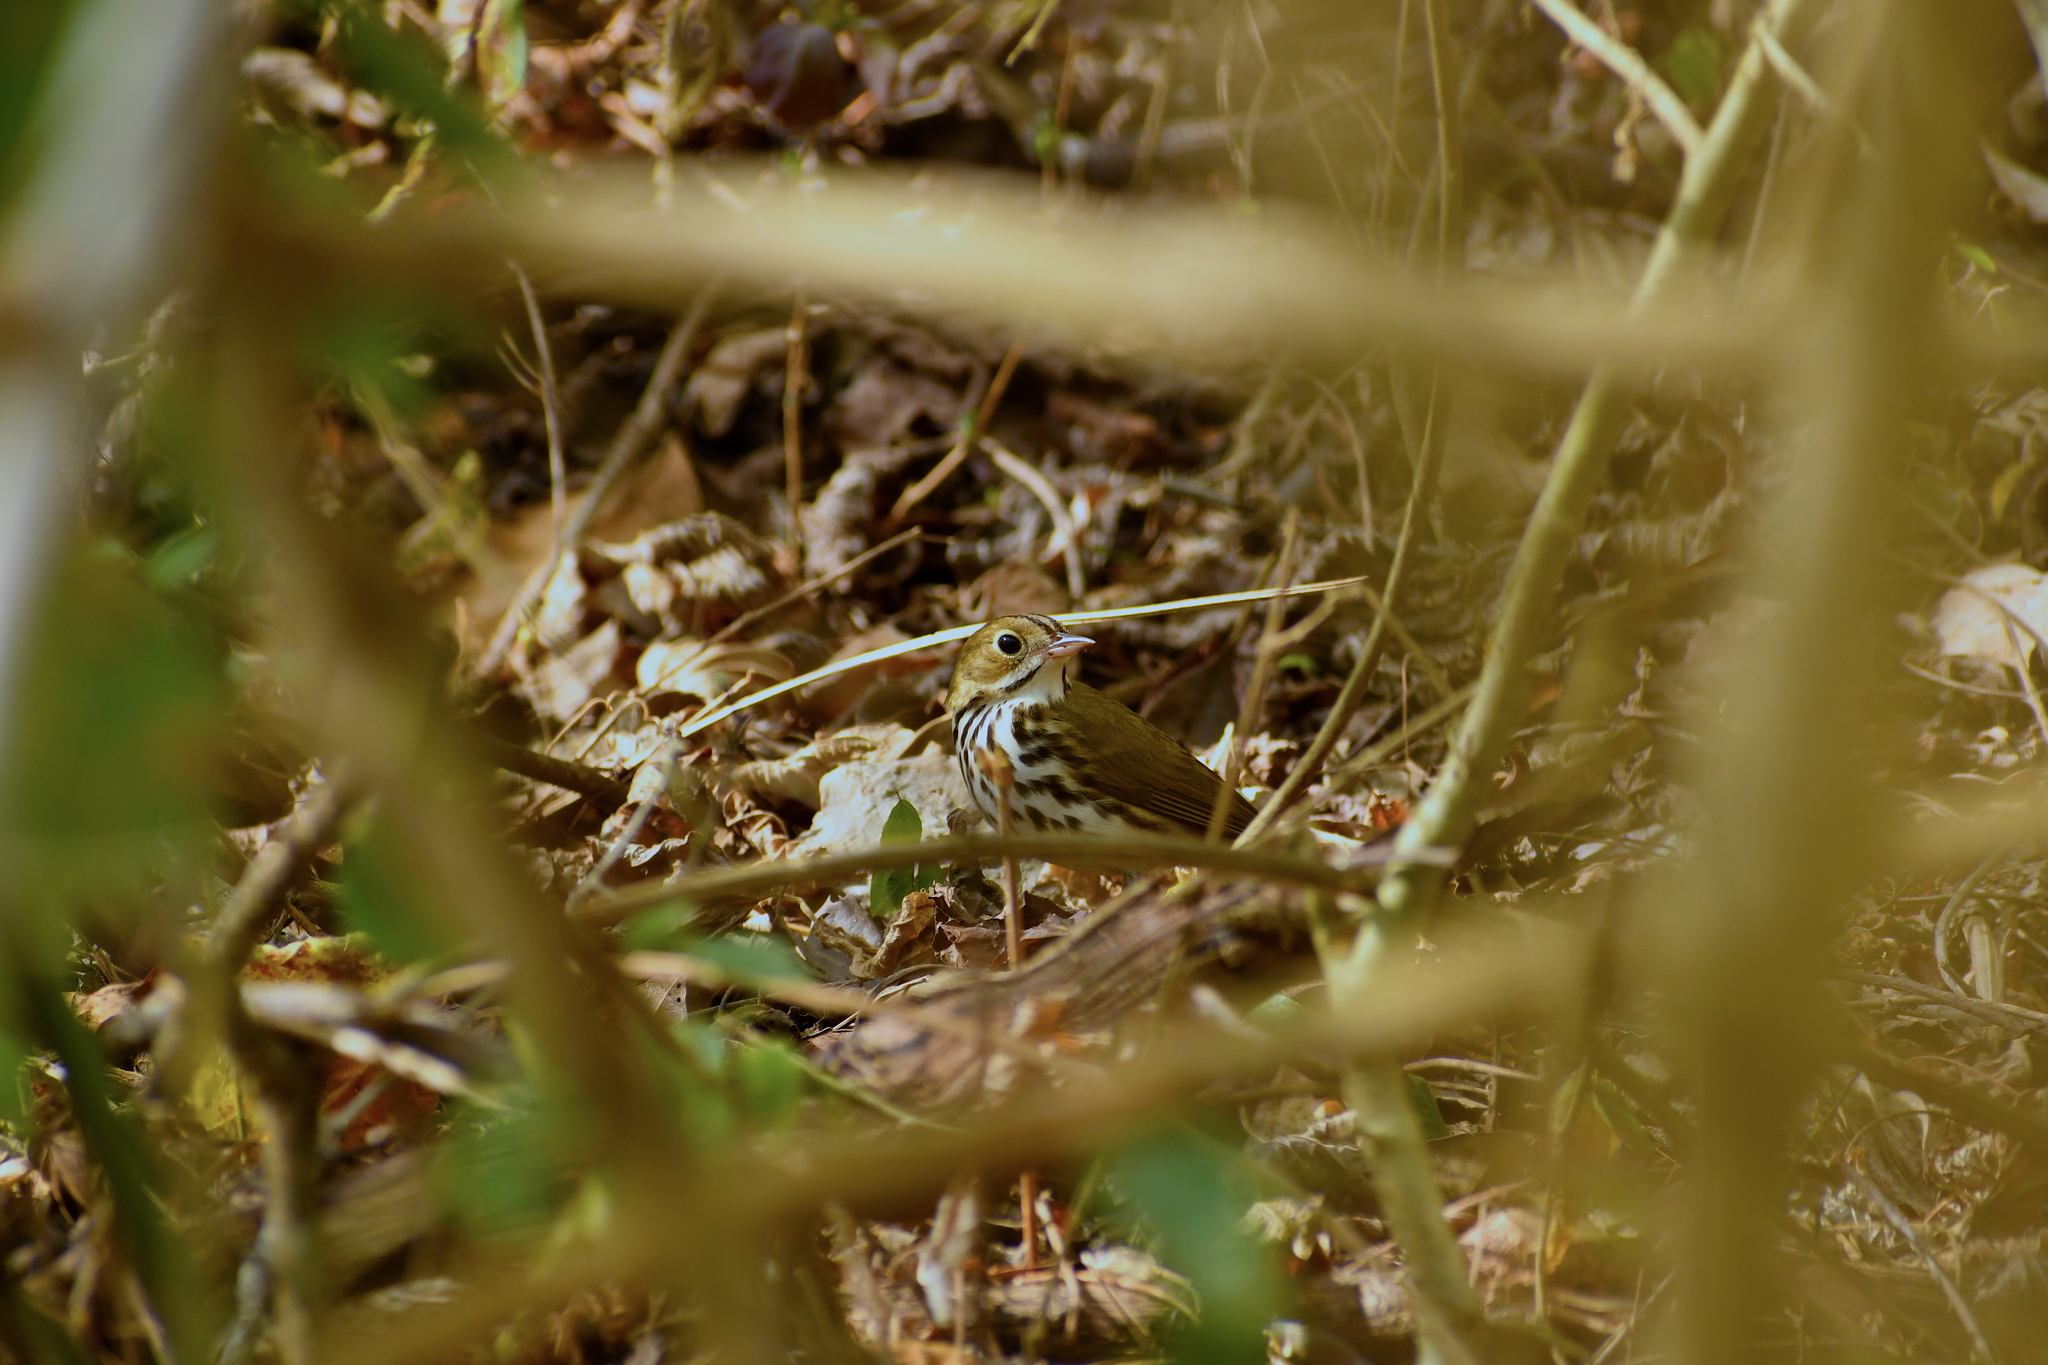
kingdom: Animalia
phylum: Chordata
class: Aves
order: Passeriformes
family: Parulidae
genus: Seiurus
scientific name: Seiurus aurocapilla
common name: Ovenbird
